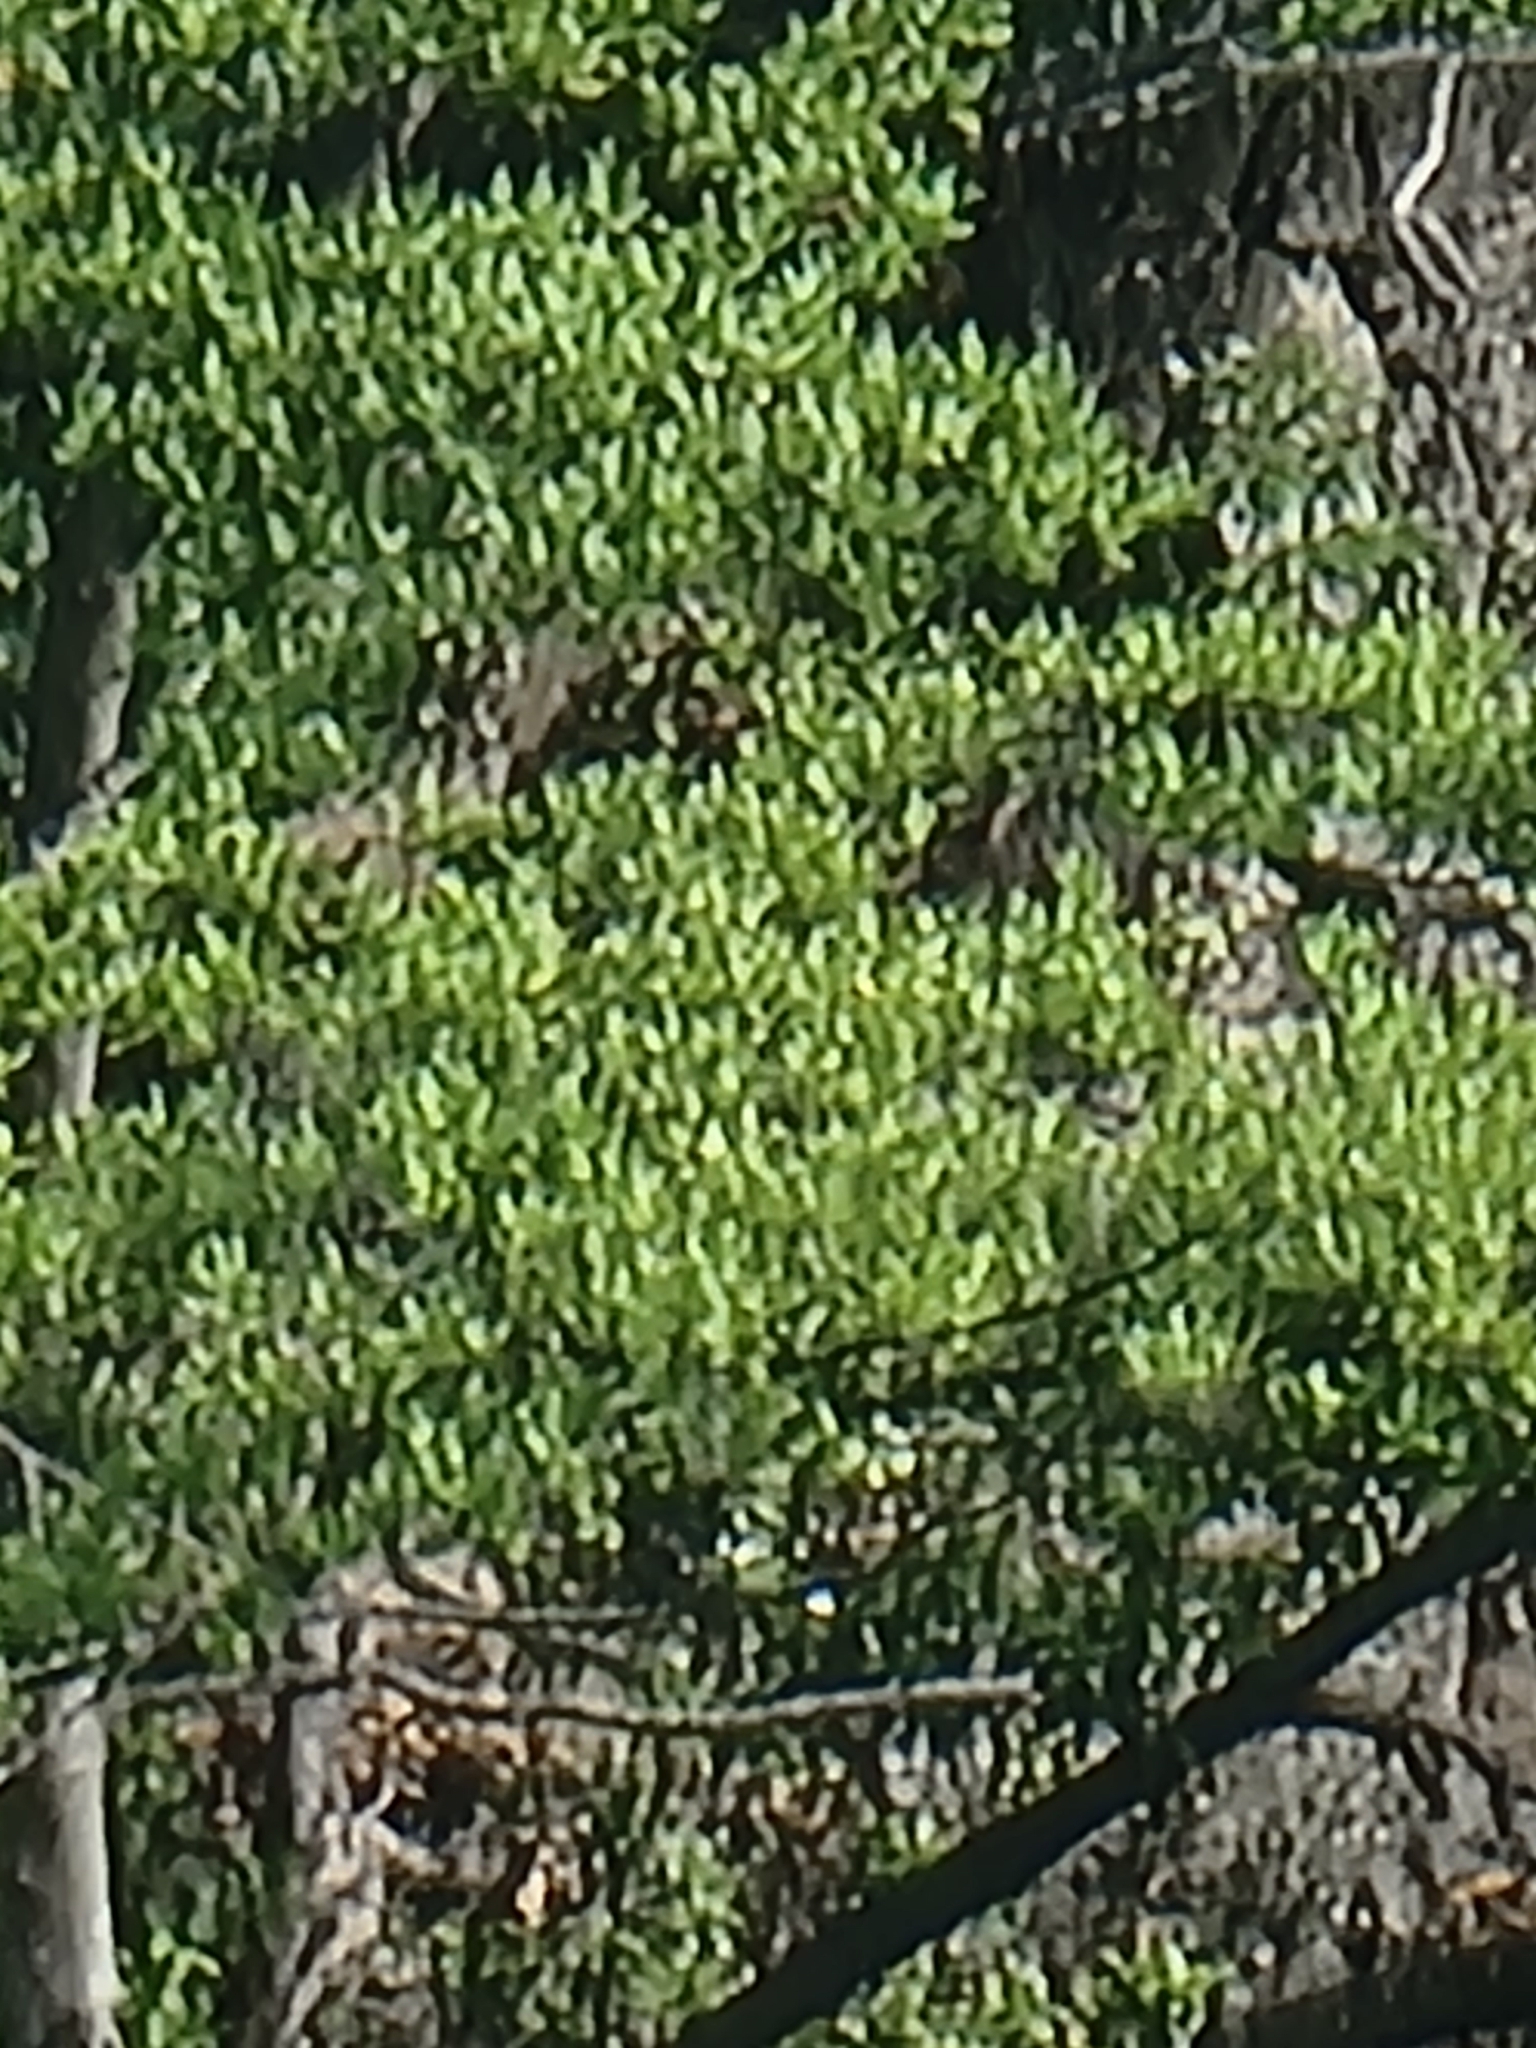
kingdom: Plantae
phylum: Tracheophyta
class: Magnoliopsida
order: Laurales
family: Lauraceae
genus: Mespilodaphne
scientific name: Mespilodaphne foetens
